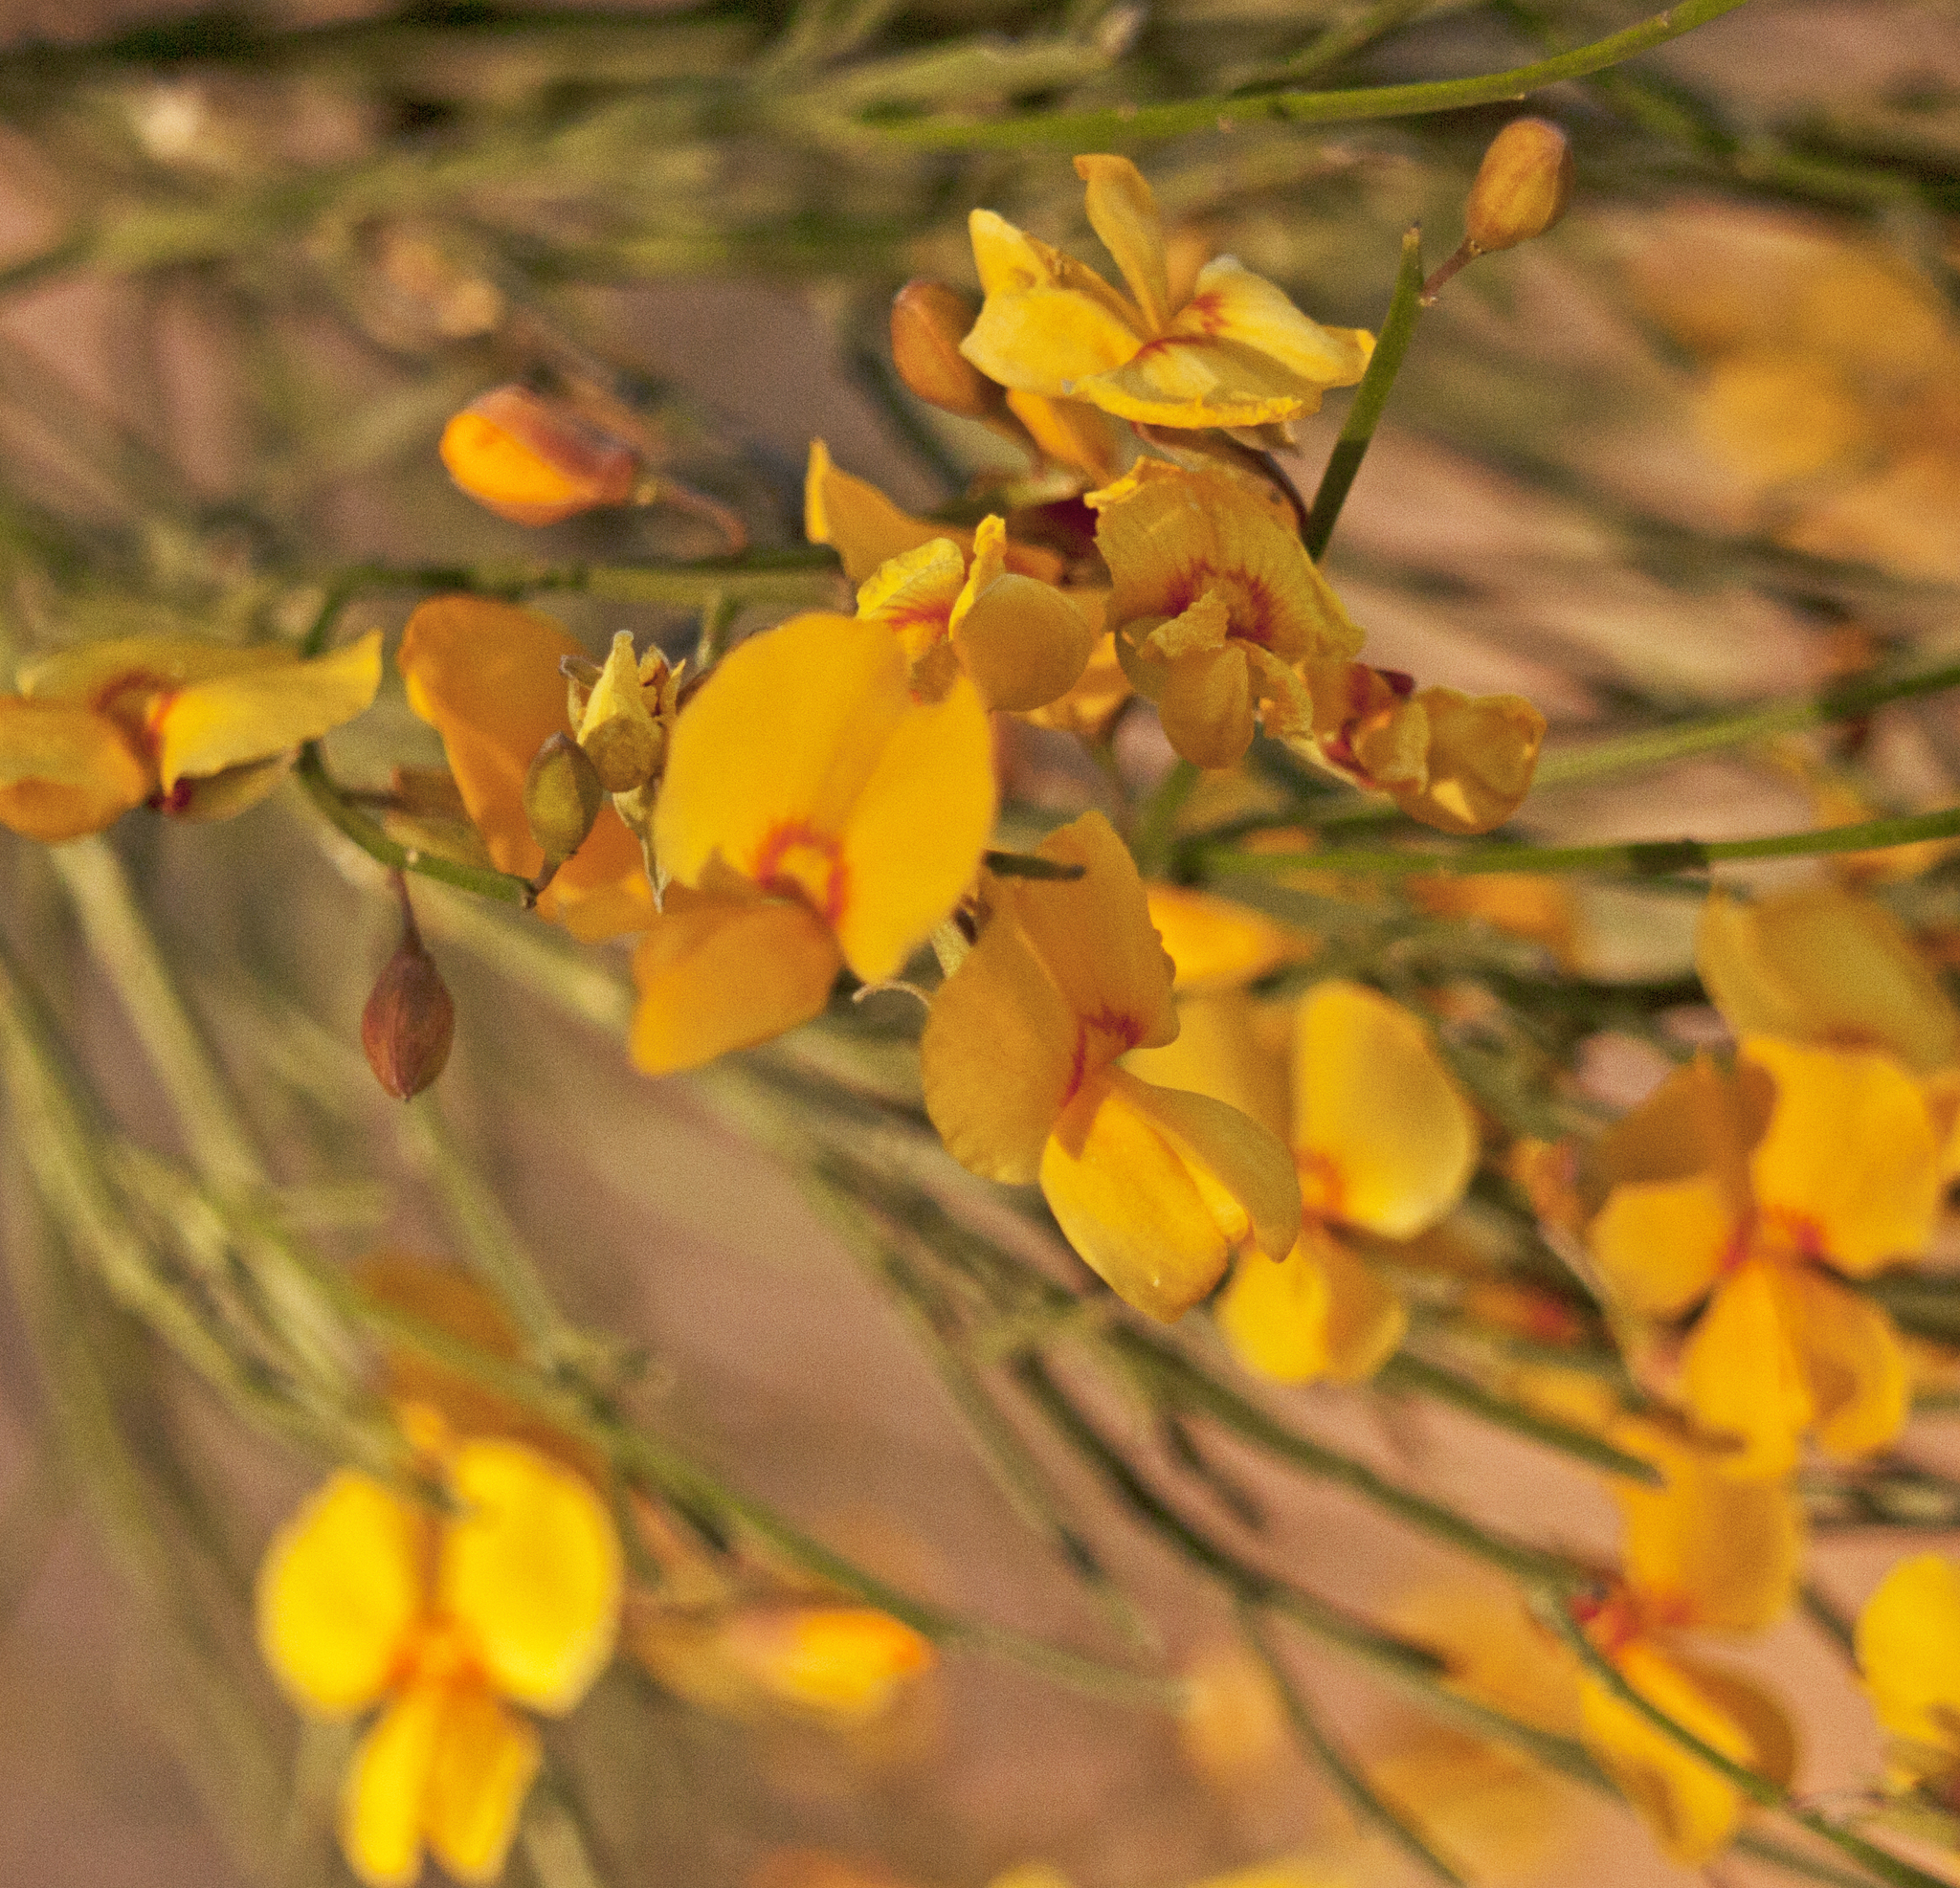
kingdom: Plantae
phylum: Tracheophyta
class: Magnoliopsida
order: Fabales
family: Fabaceae
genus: Jacksonia
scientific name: Jacksonia scoparia
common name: Dogwood
